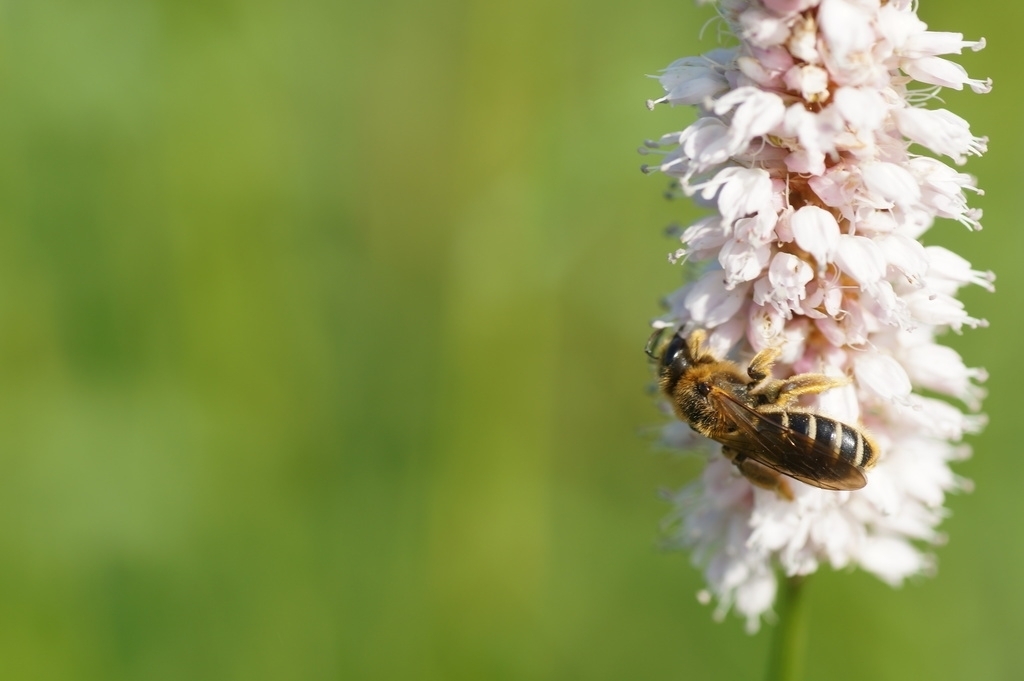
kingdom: Animalia
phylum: Arthropoda
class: Insecta
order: Hymenoptera
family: Halictidae
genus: Halictus
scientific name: Halictus
